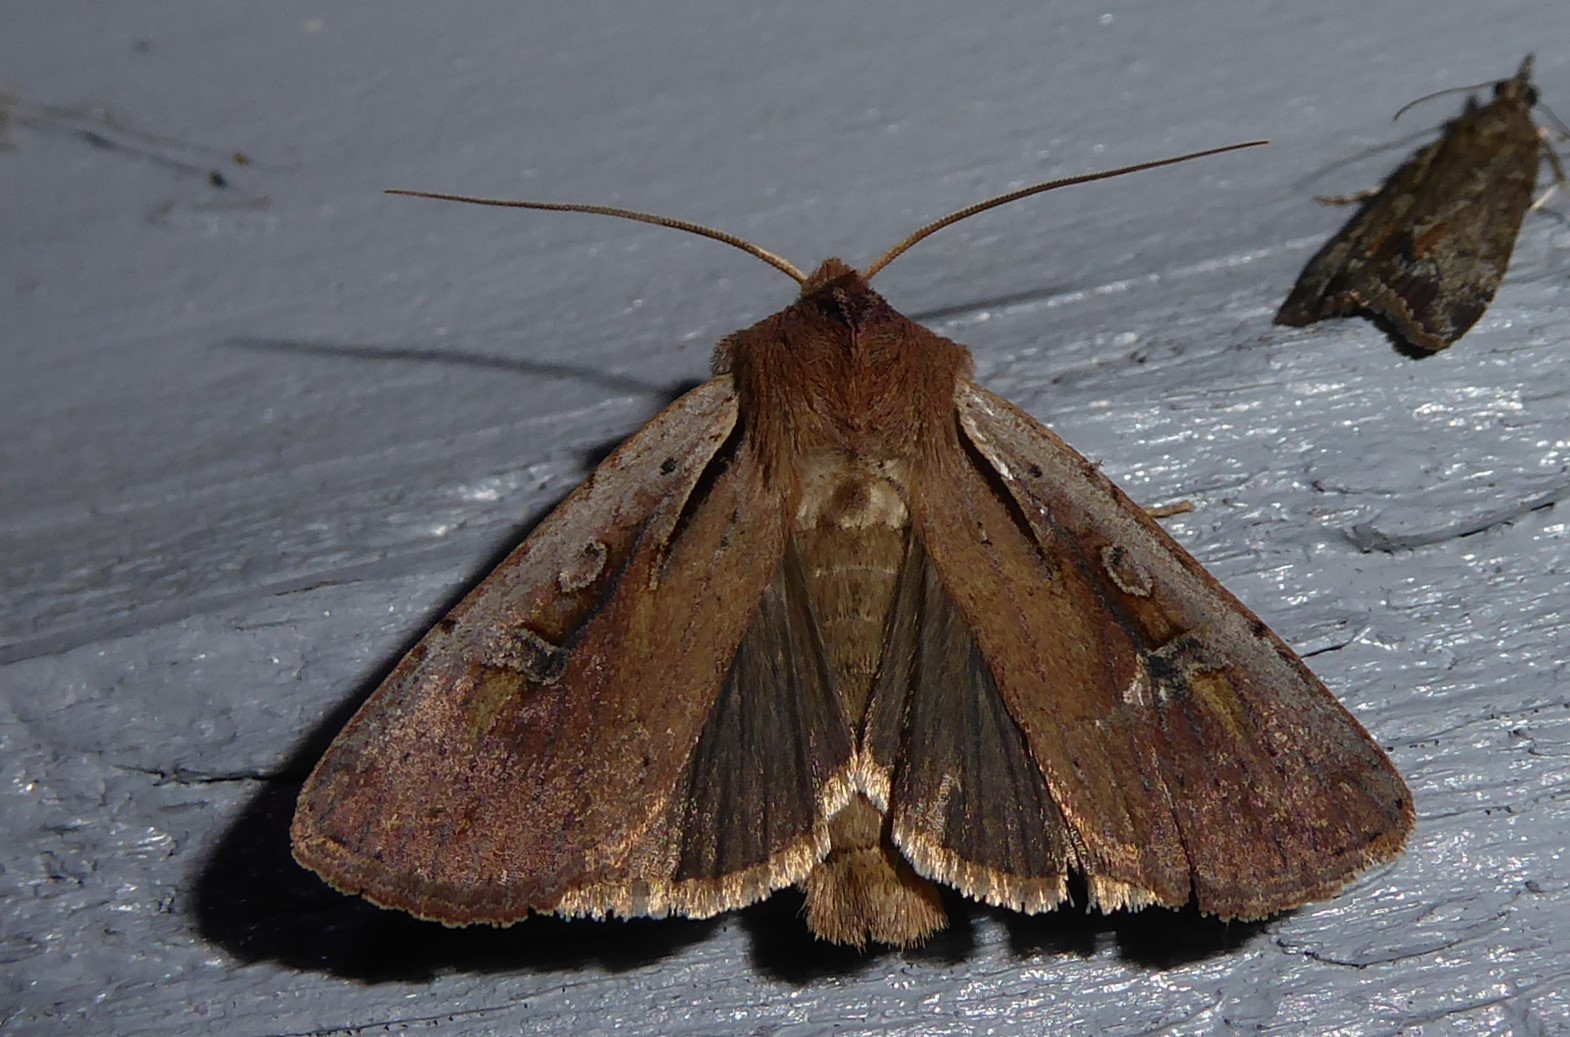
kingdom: Animalia
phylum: Arthropoda
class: Insecta
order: Lepidoptera
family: Noctuidae
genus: Ichneutica
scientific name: Ichneutica atristriga
